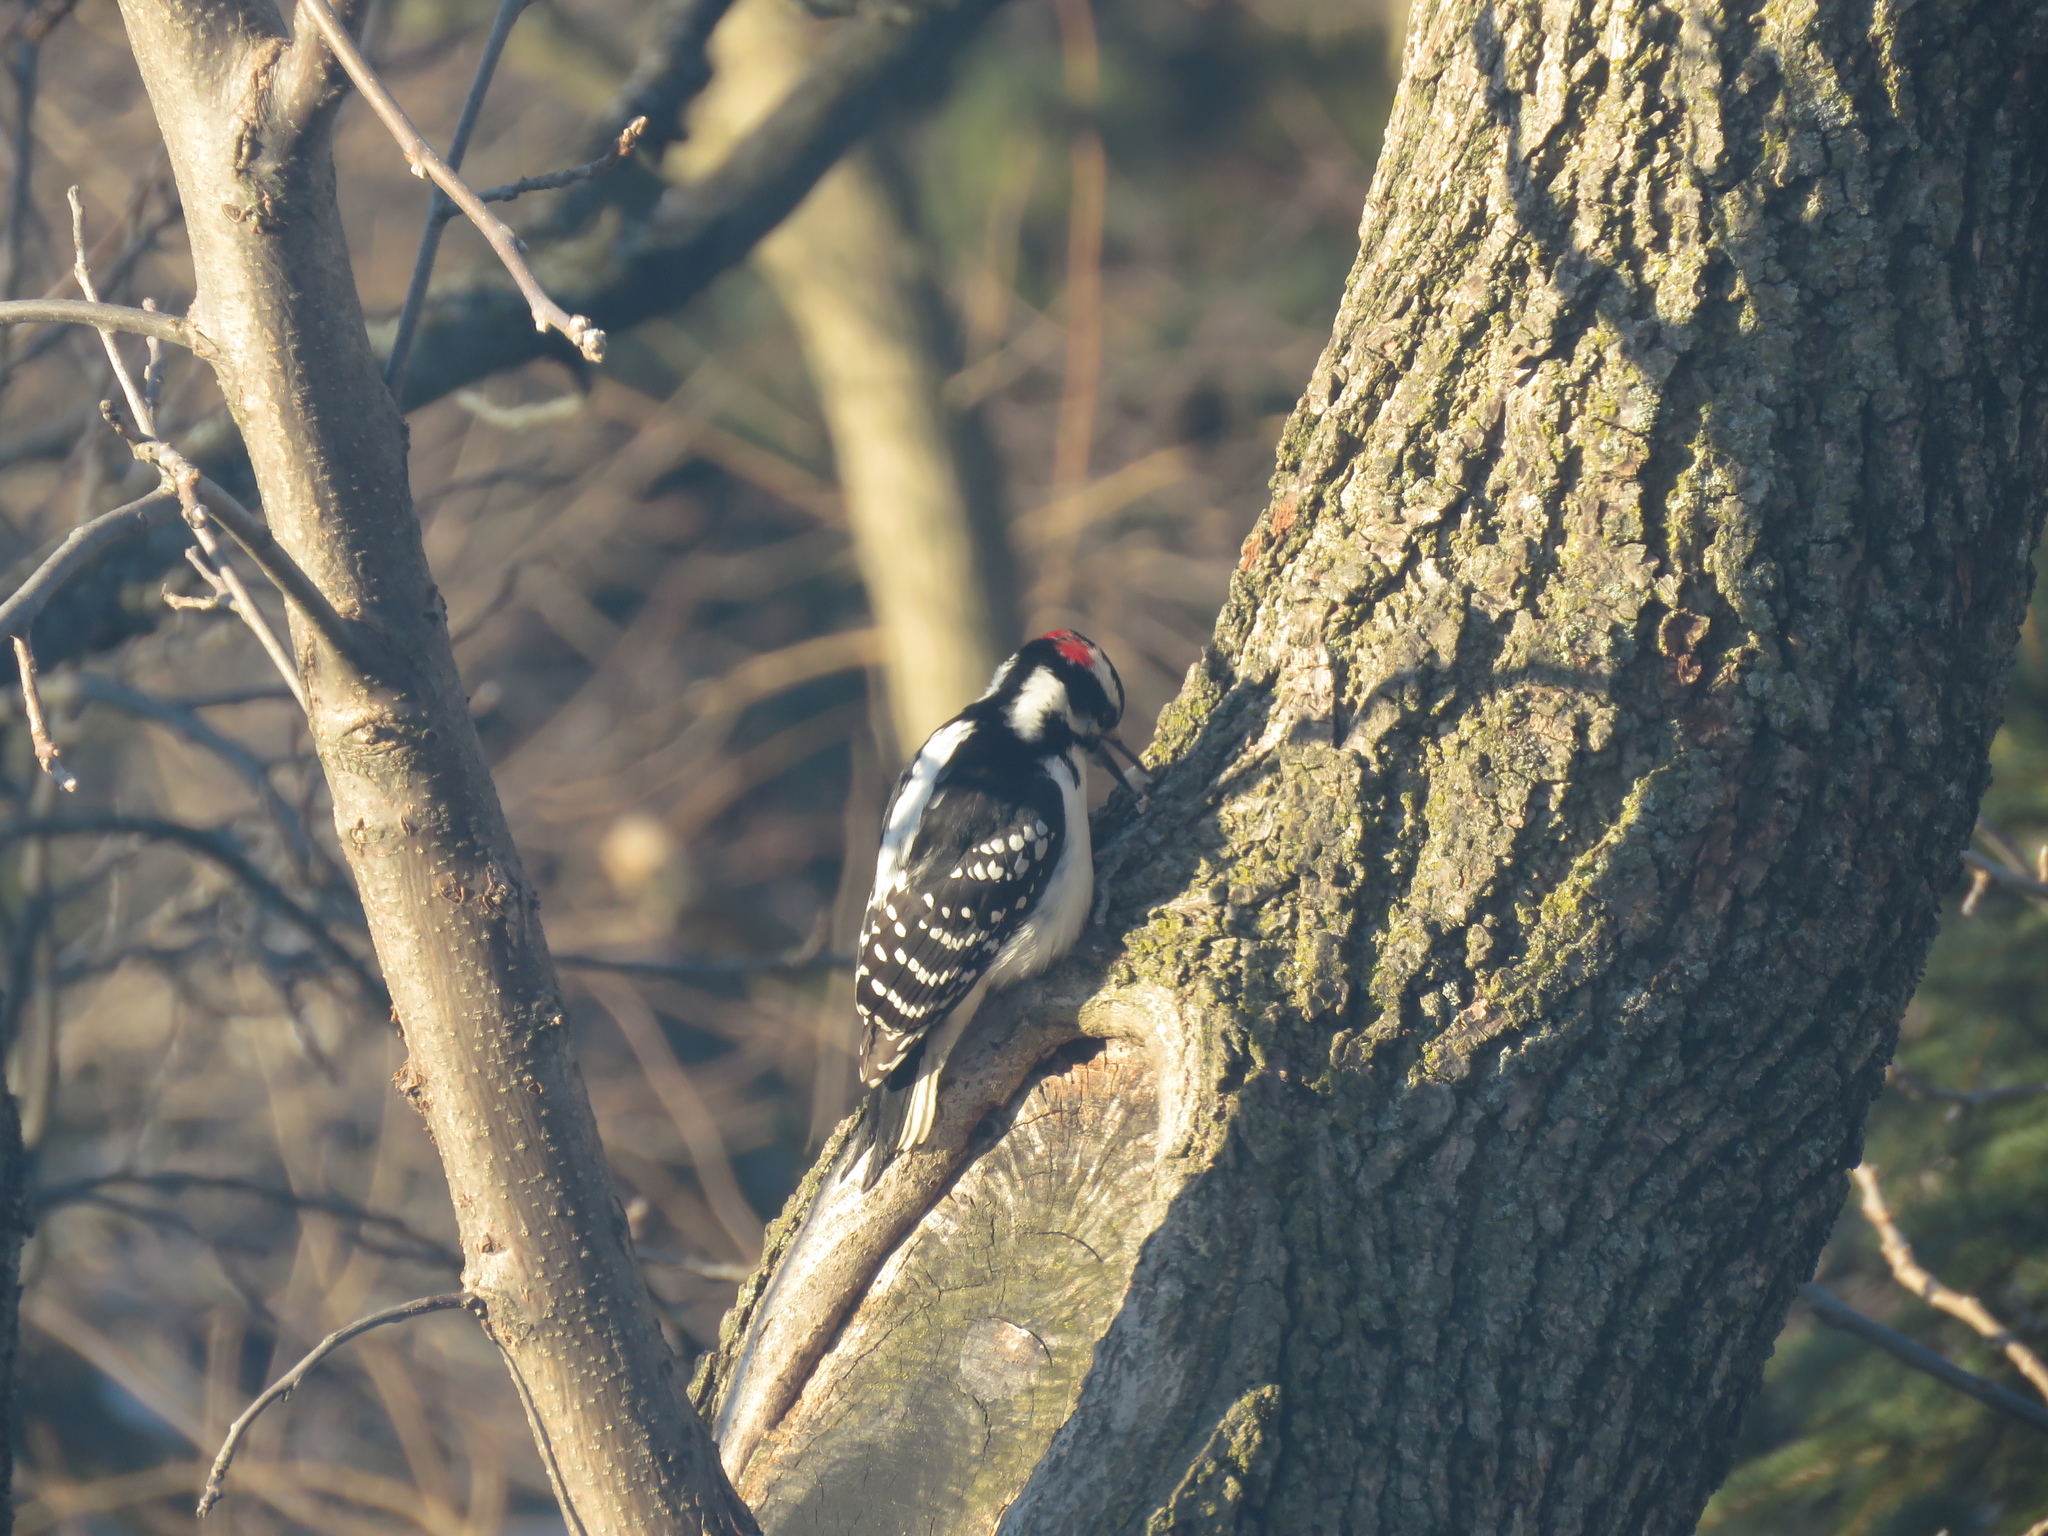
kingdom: Animalia
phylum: Chordata
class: Aves
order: Piciformes
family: Picidae
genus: Leuconotopicus
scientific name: Leuconotopicus villosus
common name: Hairy woodpecker
